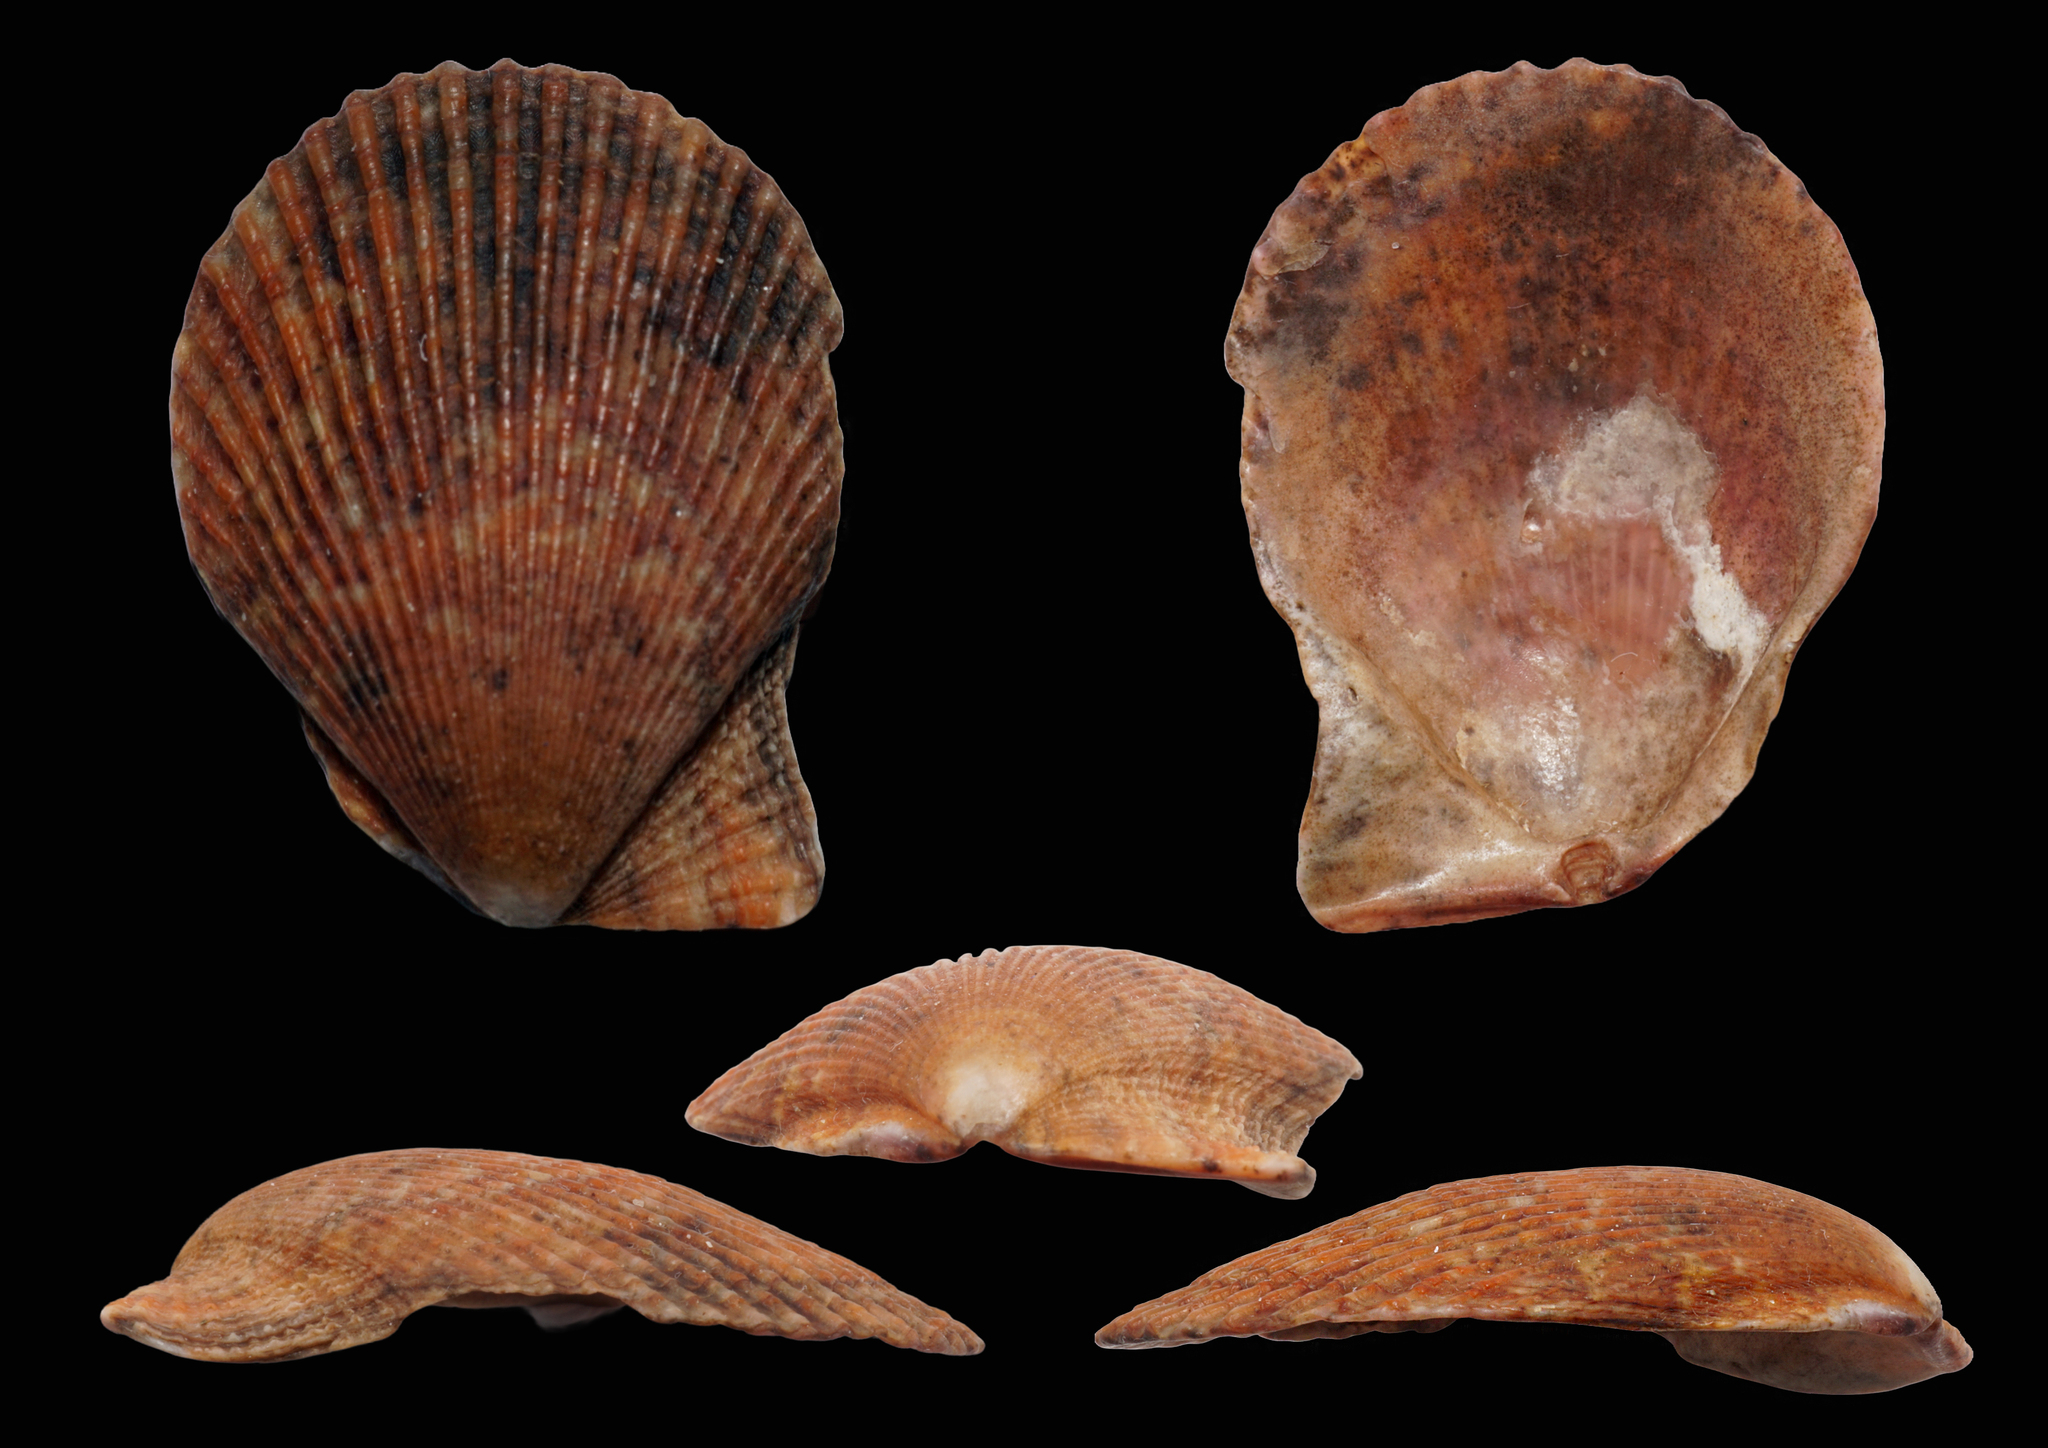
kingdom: Animalia
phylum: Mollusca
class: Bivalvia
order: Pectinida
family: Pectinidae
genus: Mimachlamys
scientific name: Mimachlamys varia
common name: Variegated scallop
